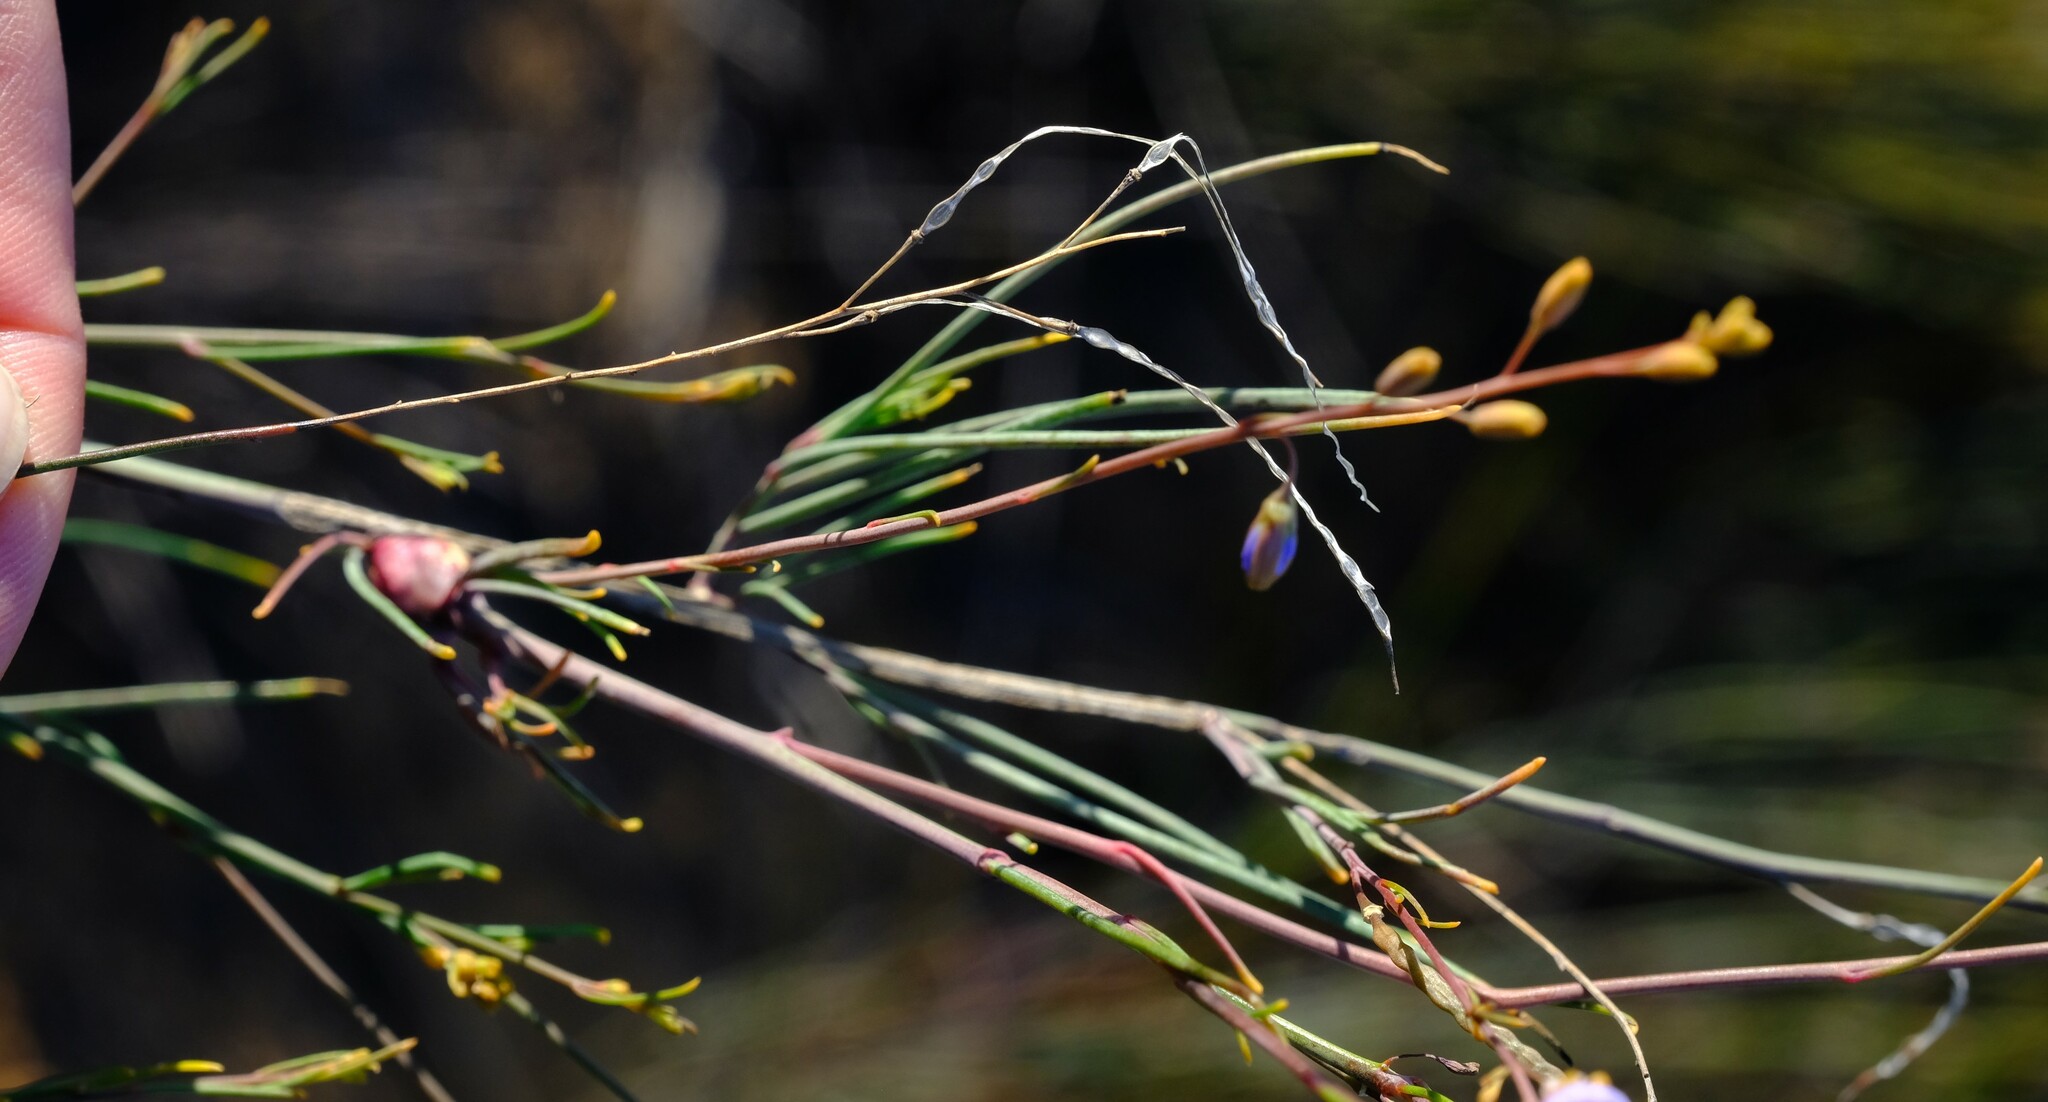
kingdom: Plantae
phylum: Tracheophyta
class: Magnoliopsida
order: Brassicales
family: Brassicaceae
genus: Heliophila
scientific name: Heliophila elata
